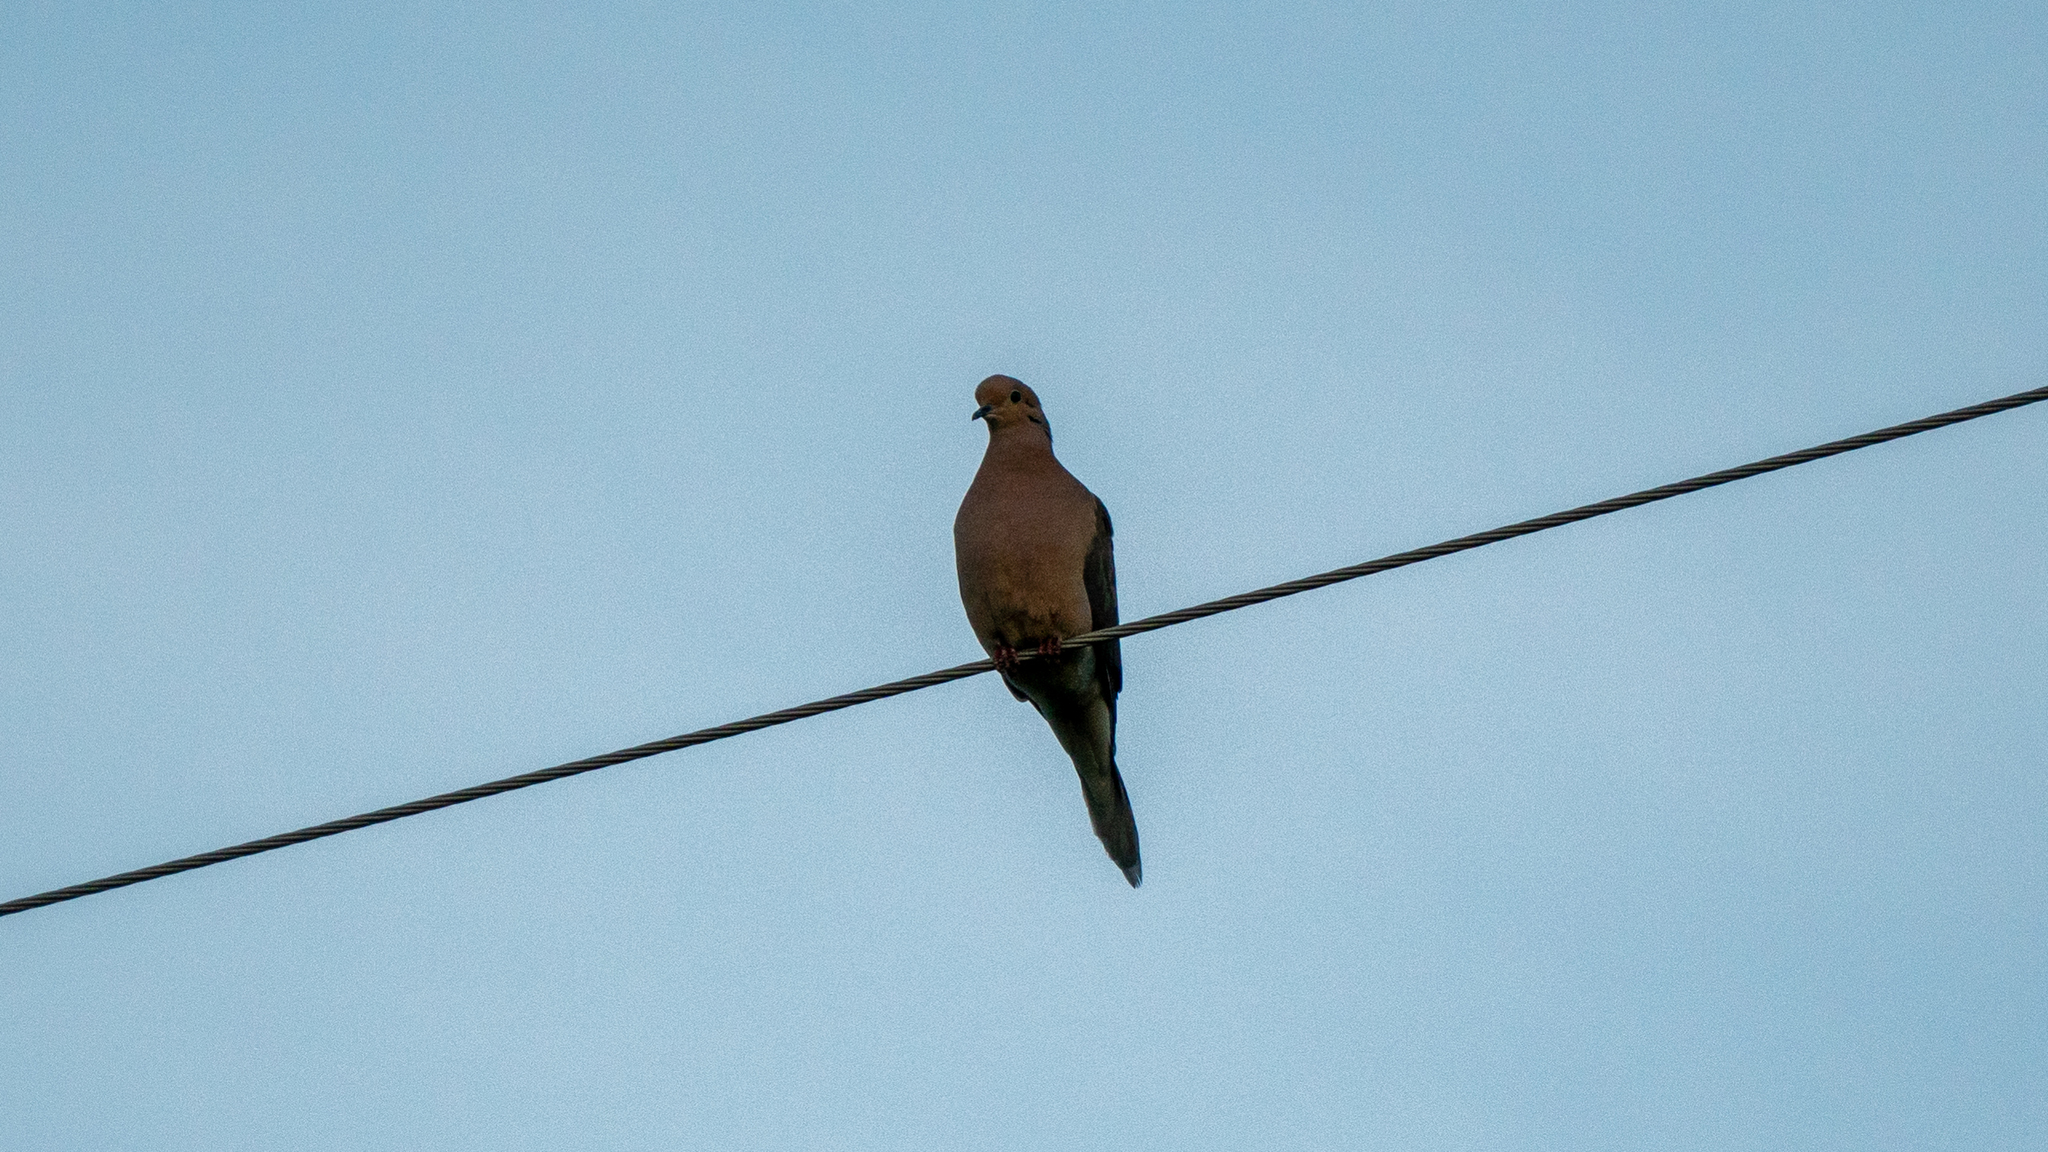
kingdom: Animalia
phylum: Chordata
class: Aves
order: Columbiformes
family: Columbidae
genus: Zenaida
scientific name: Zenaida macroura
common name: Mourning dove
